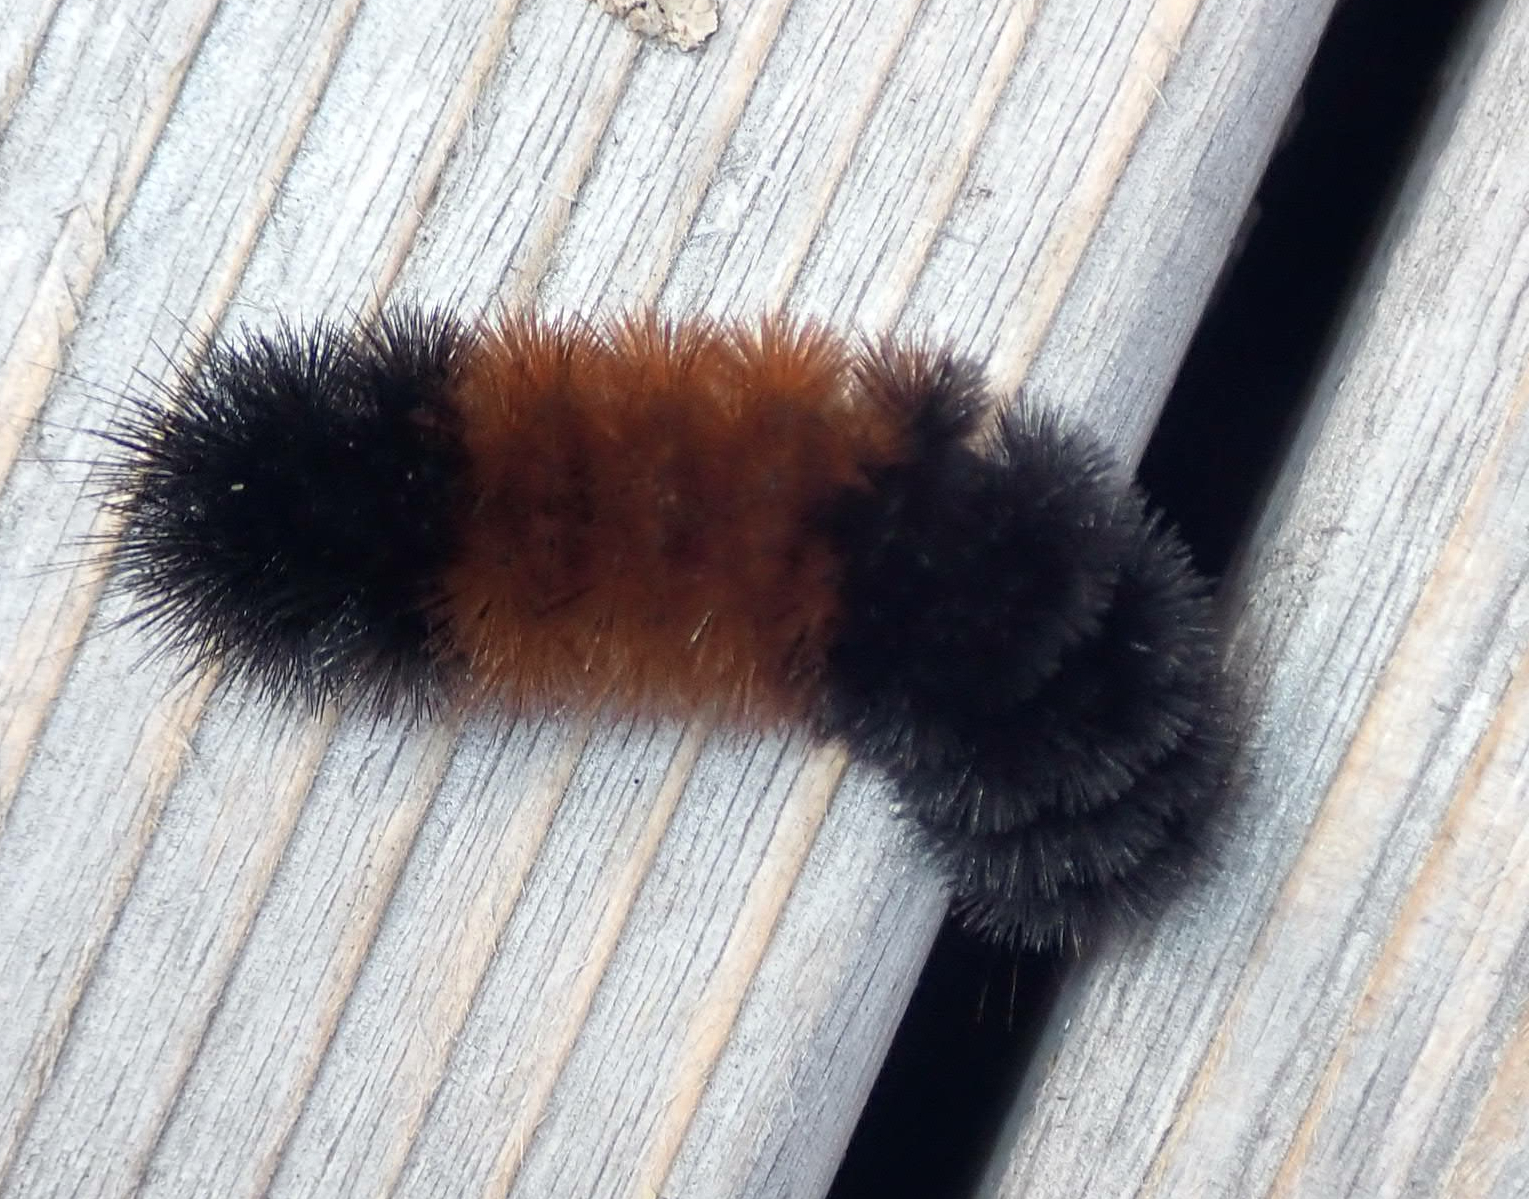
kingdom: Animalia
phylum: Arthropoda
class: Insecta
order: Lepidoptera
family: Erebidae
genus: Pyrrharctia
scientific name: Pyrrharctia isabella
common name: Isabella tiger moth
